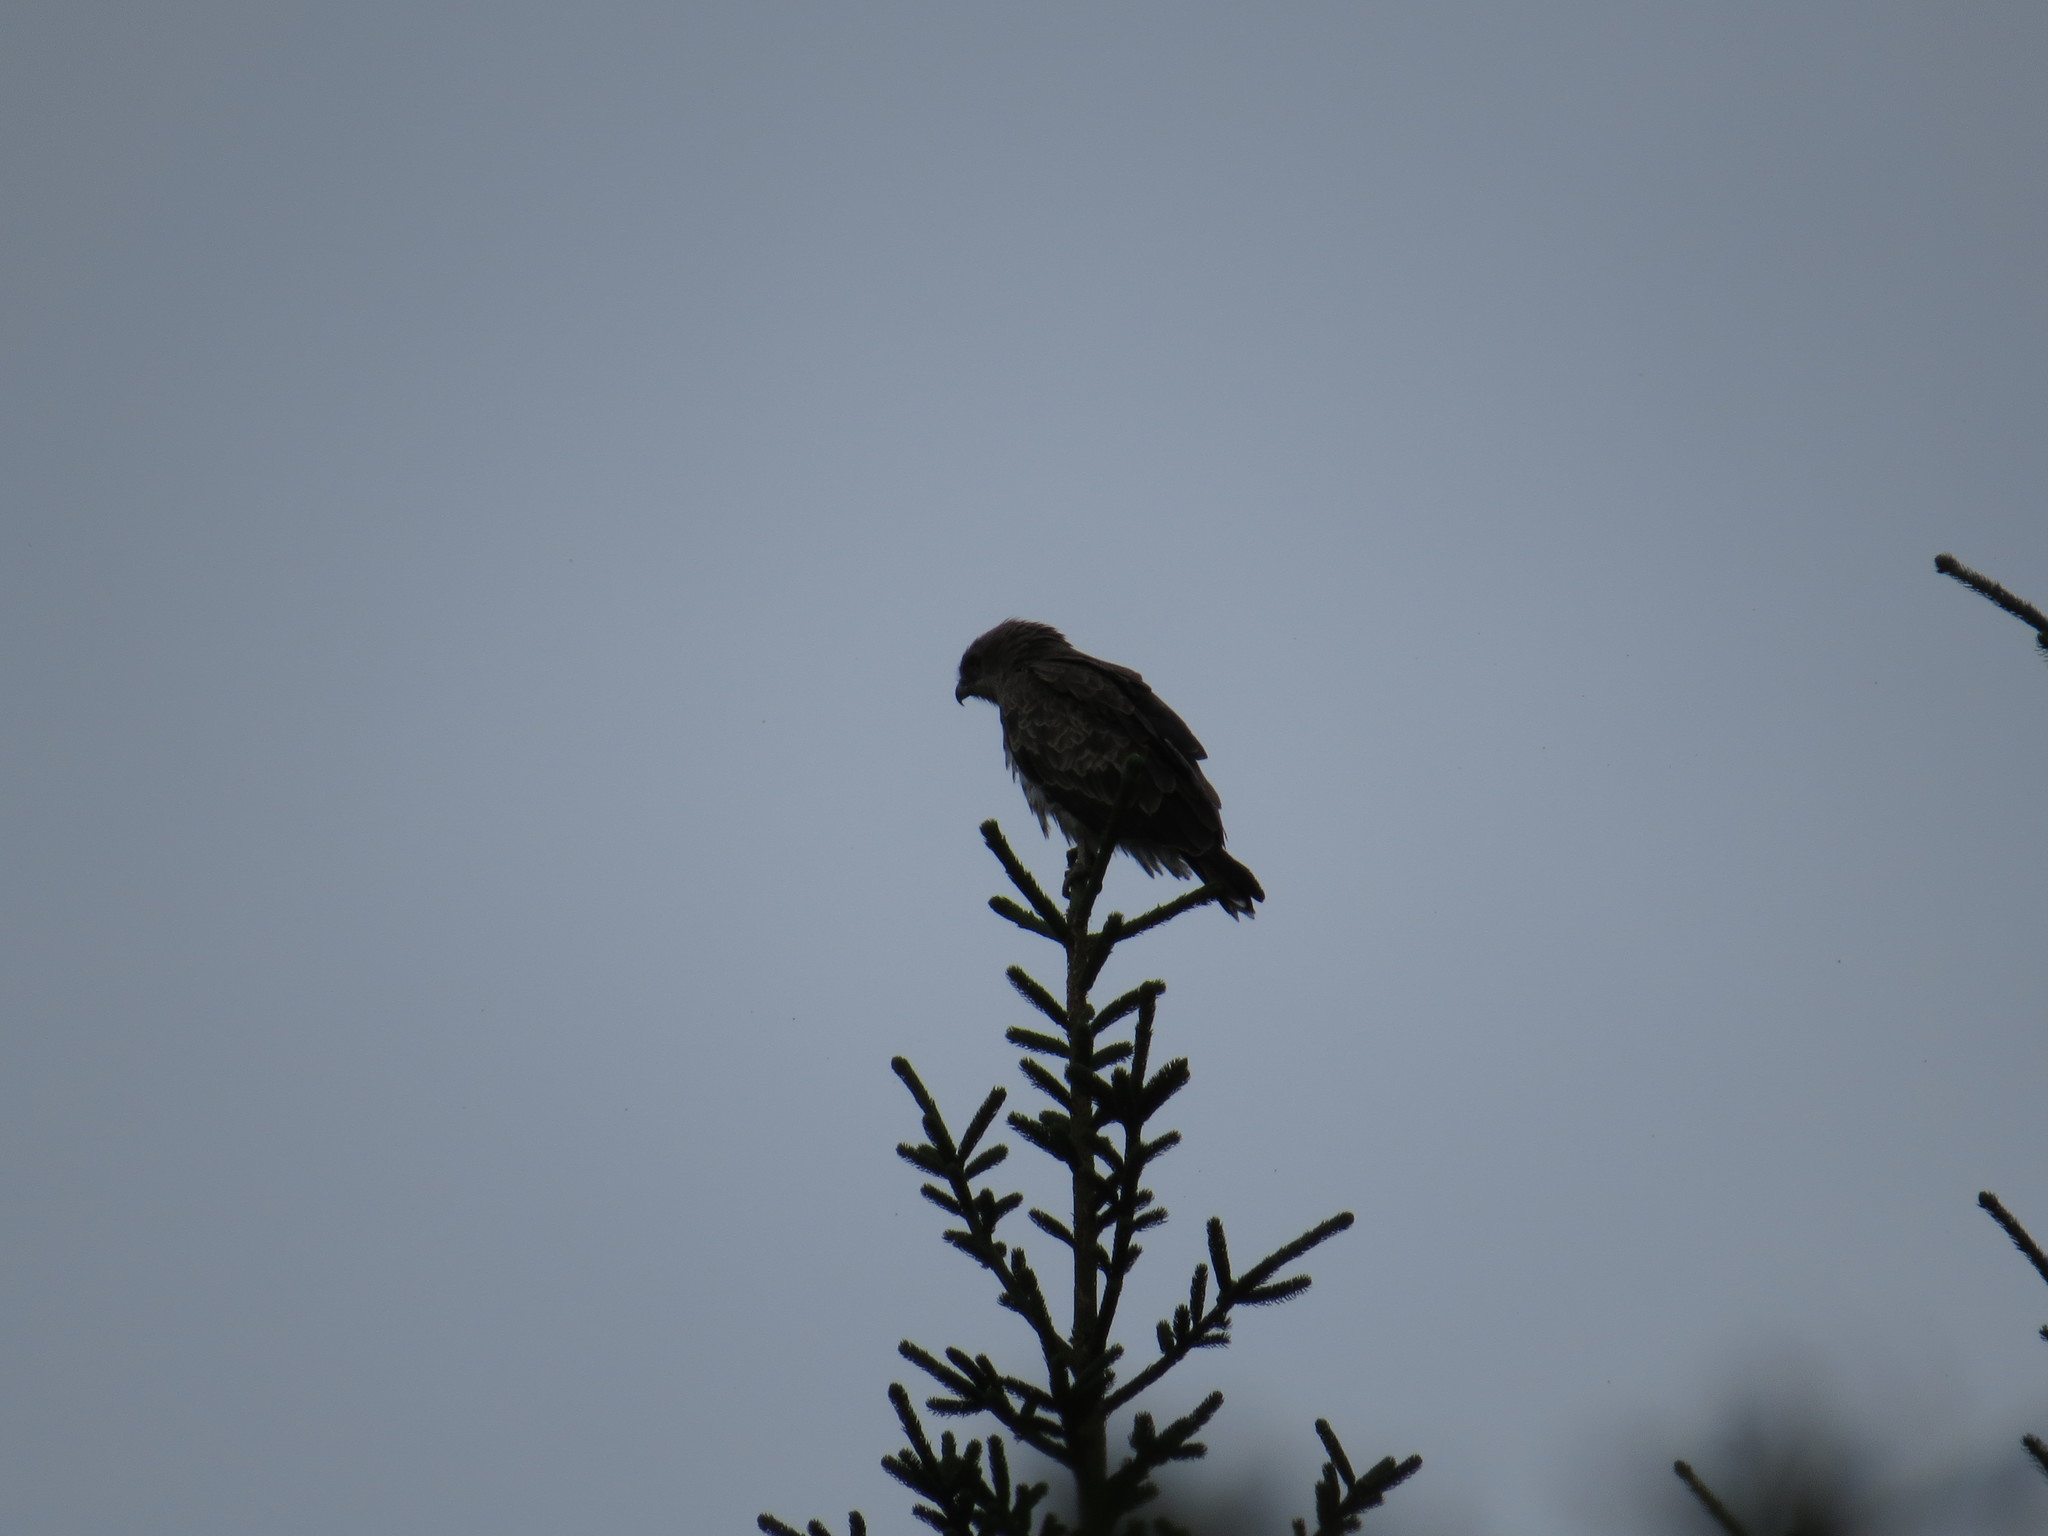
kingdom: Animalia
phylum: Chordata
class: Aves
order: Accipitriformes
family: Accipitridae
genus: Circaetus
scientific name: Circaetus gallicus
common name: Short-toed snake eagle
